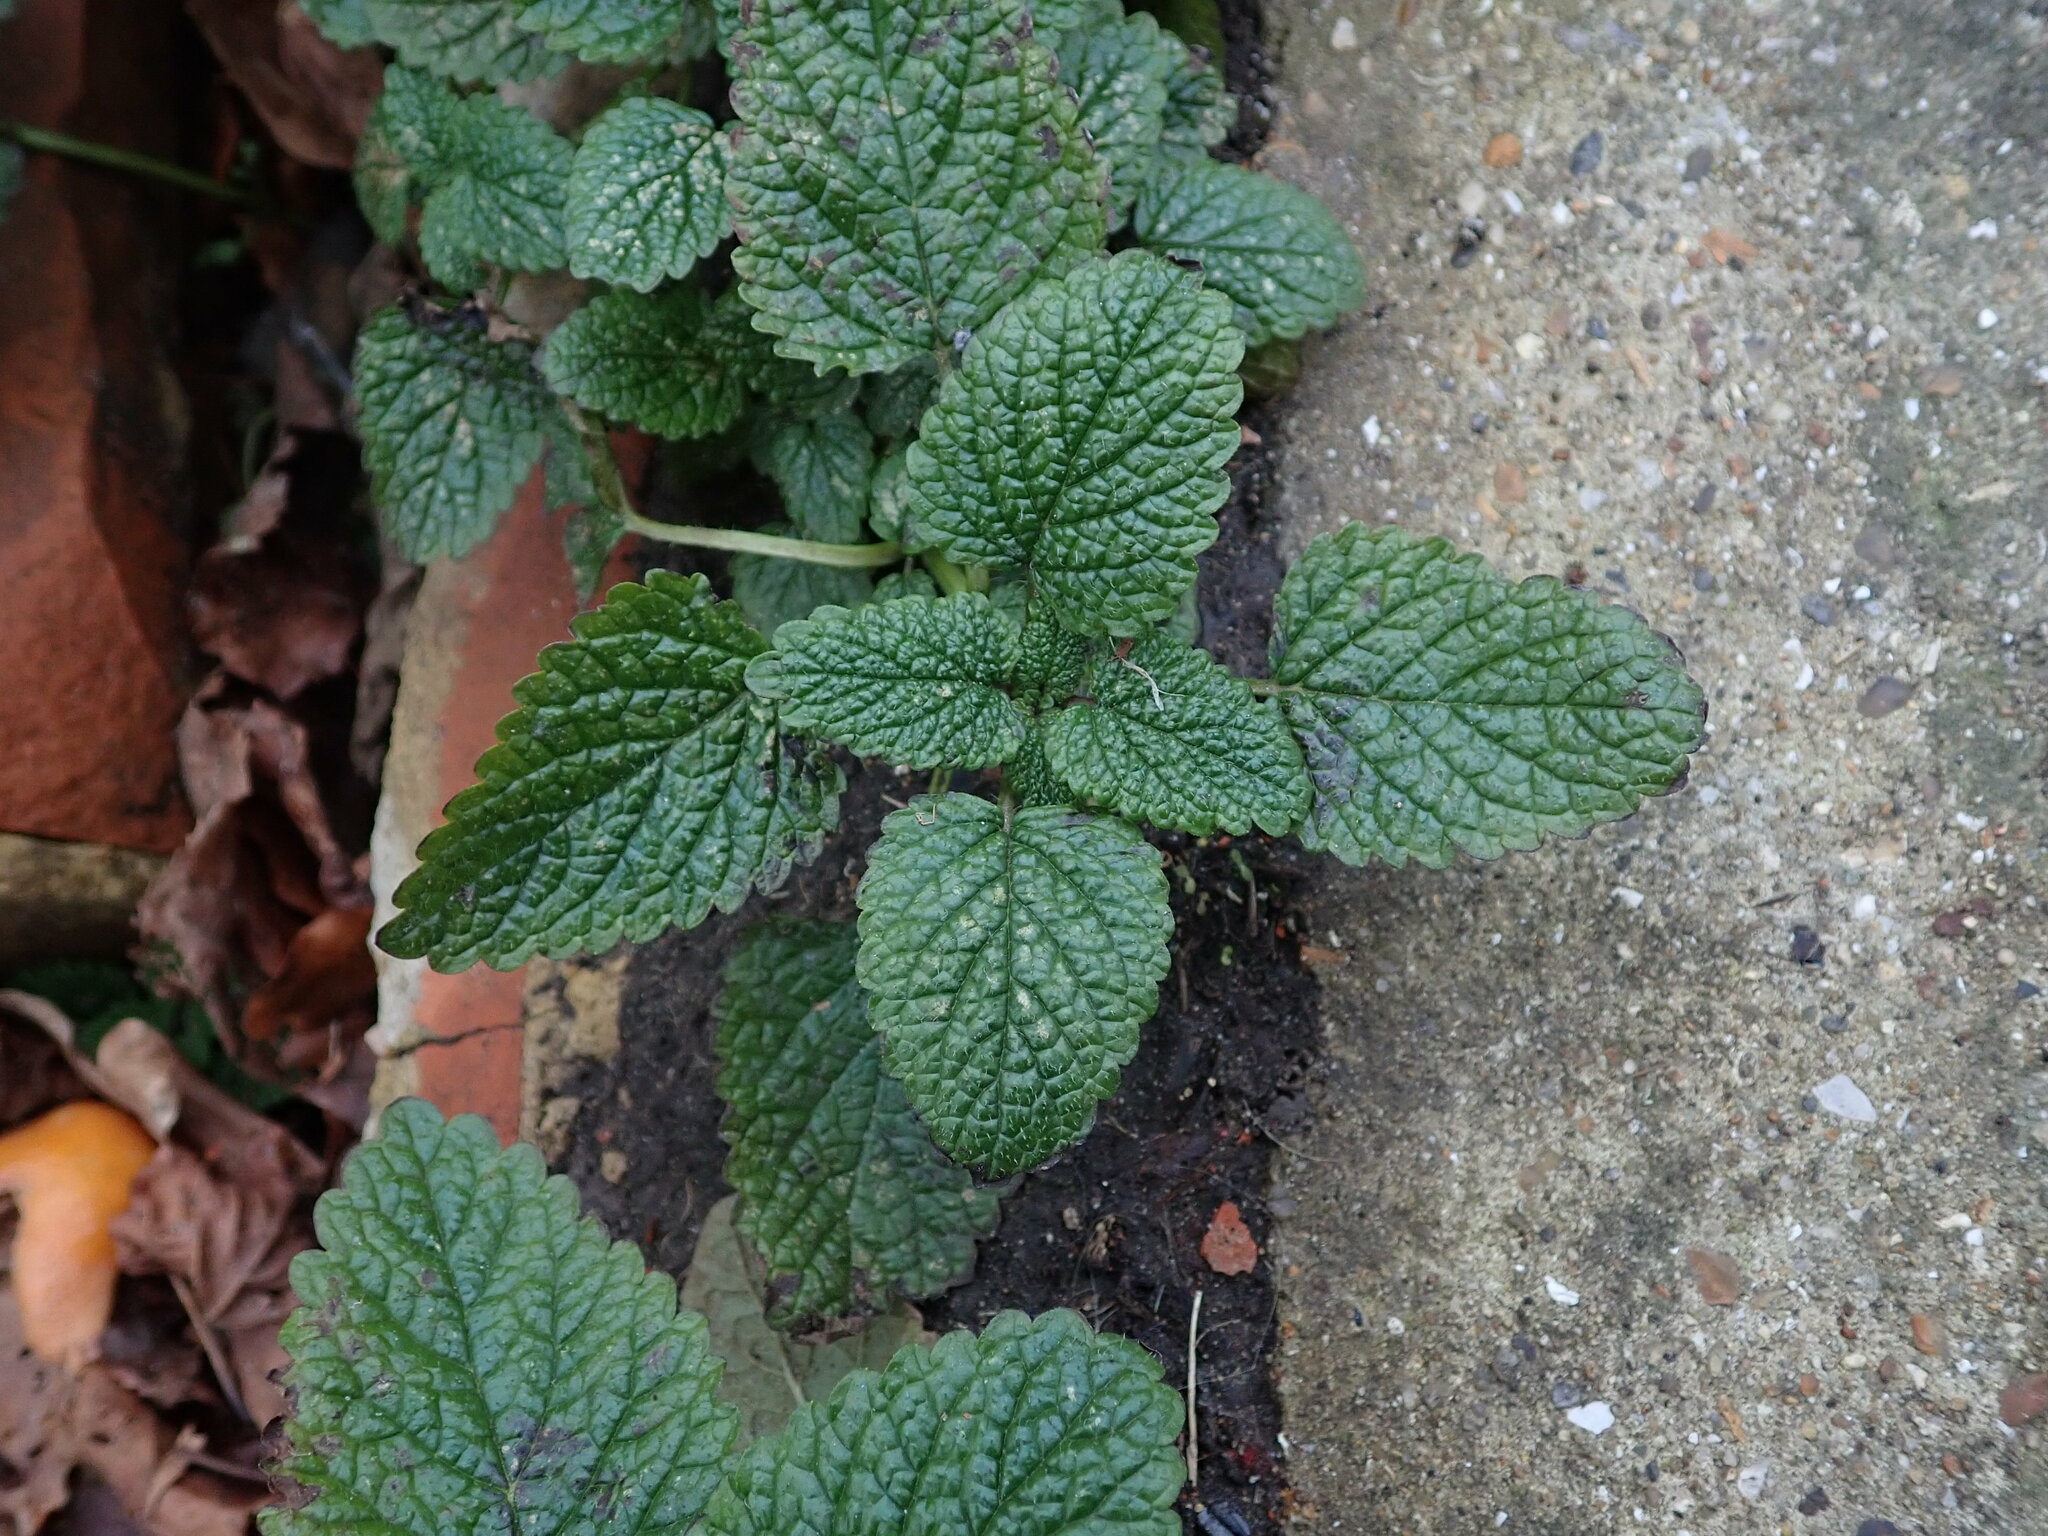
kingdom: Plantae
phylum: Tracheophyta
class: Magnoliopsida
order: Lamiales
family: Lamiaceae
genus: Melissa
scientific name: Melissa officinalis
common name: Balm
